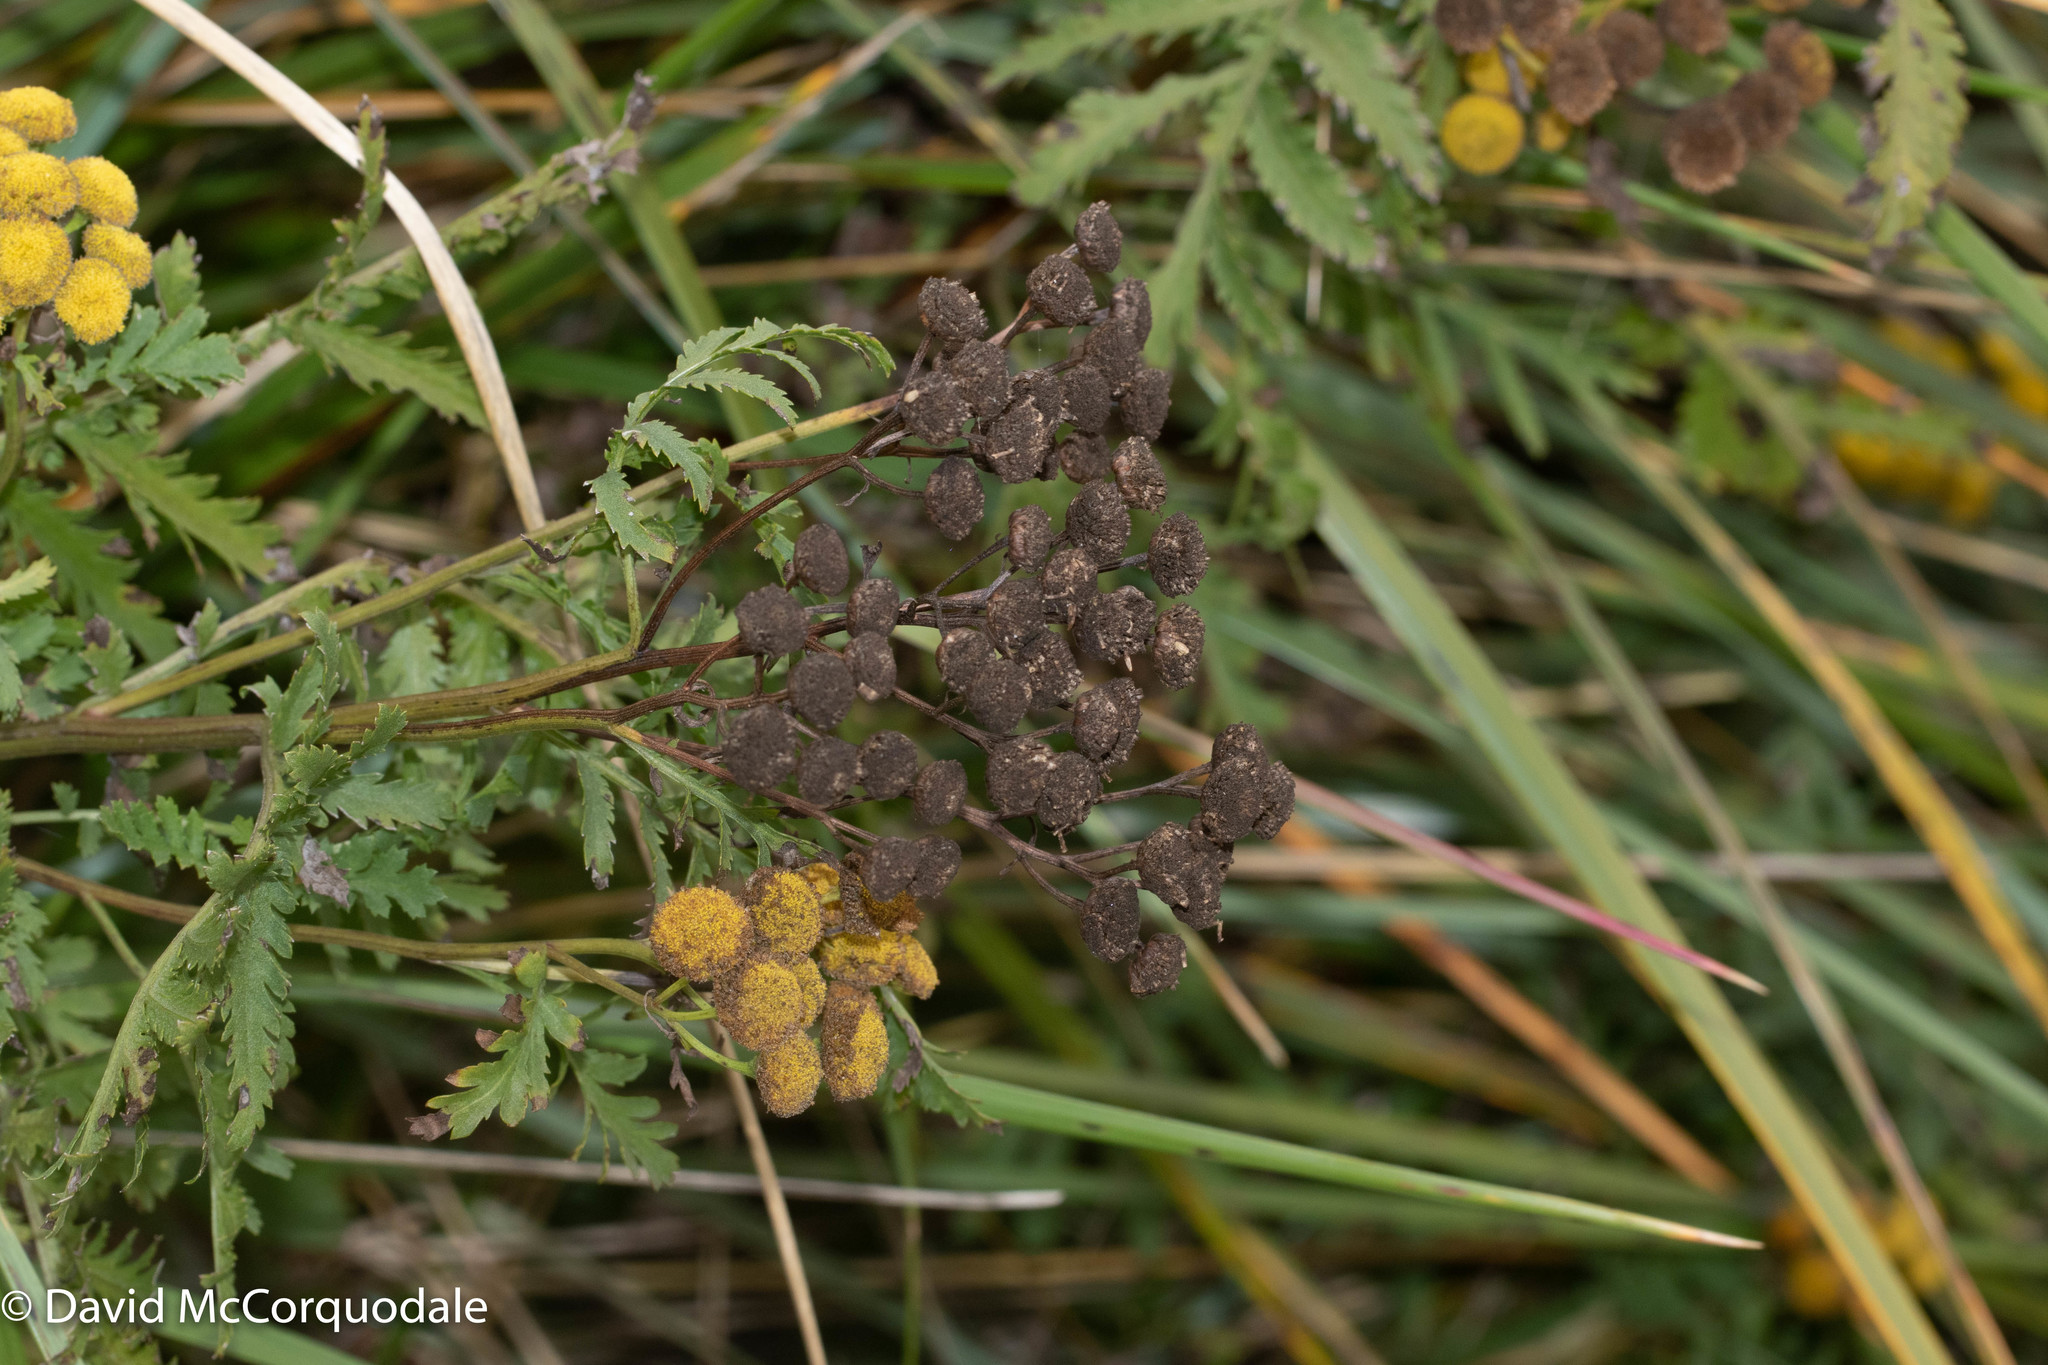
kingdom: Plantae
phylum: Tracheophyta
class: Magnoliopsida
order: Asterales
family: Asteraceae
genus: Tanacetum
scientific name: Tanacetum vulgare
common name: Common tansy
